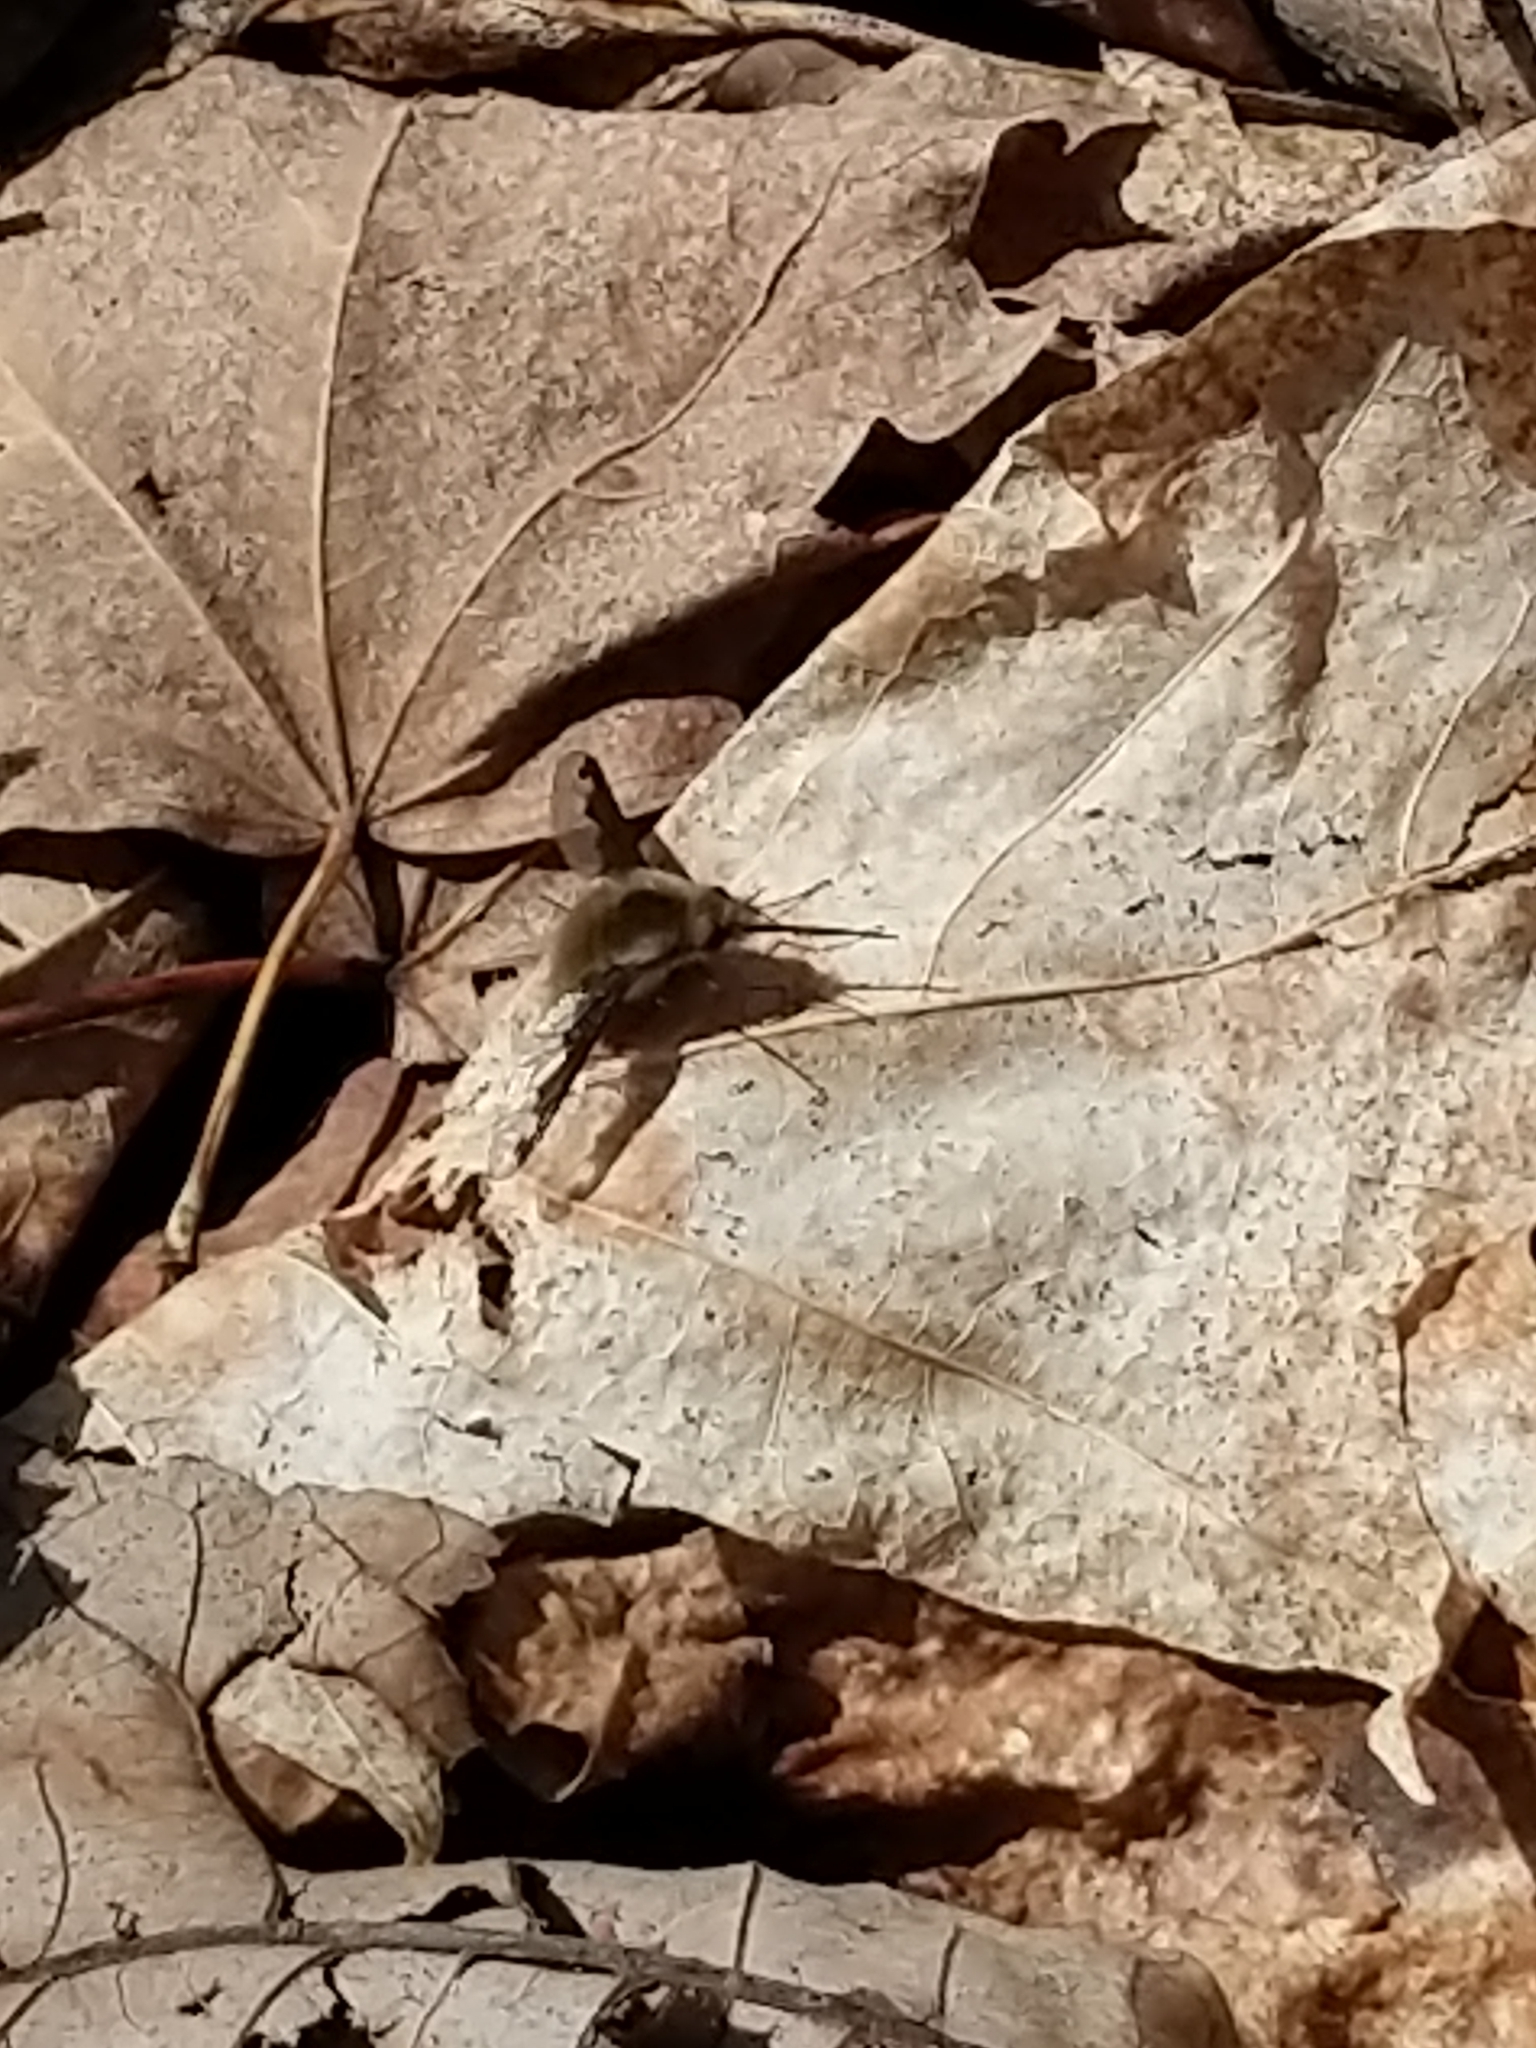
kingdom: Animalia
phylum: Arthropoda
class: Insecta
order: Diptera
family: Bombyliidae
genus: Bombylius
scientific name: Bombylius major
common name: Bee fly
